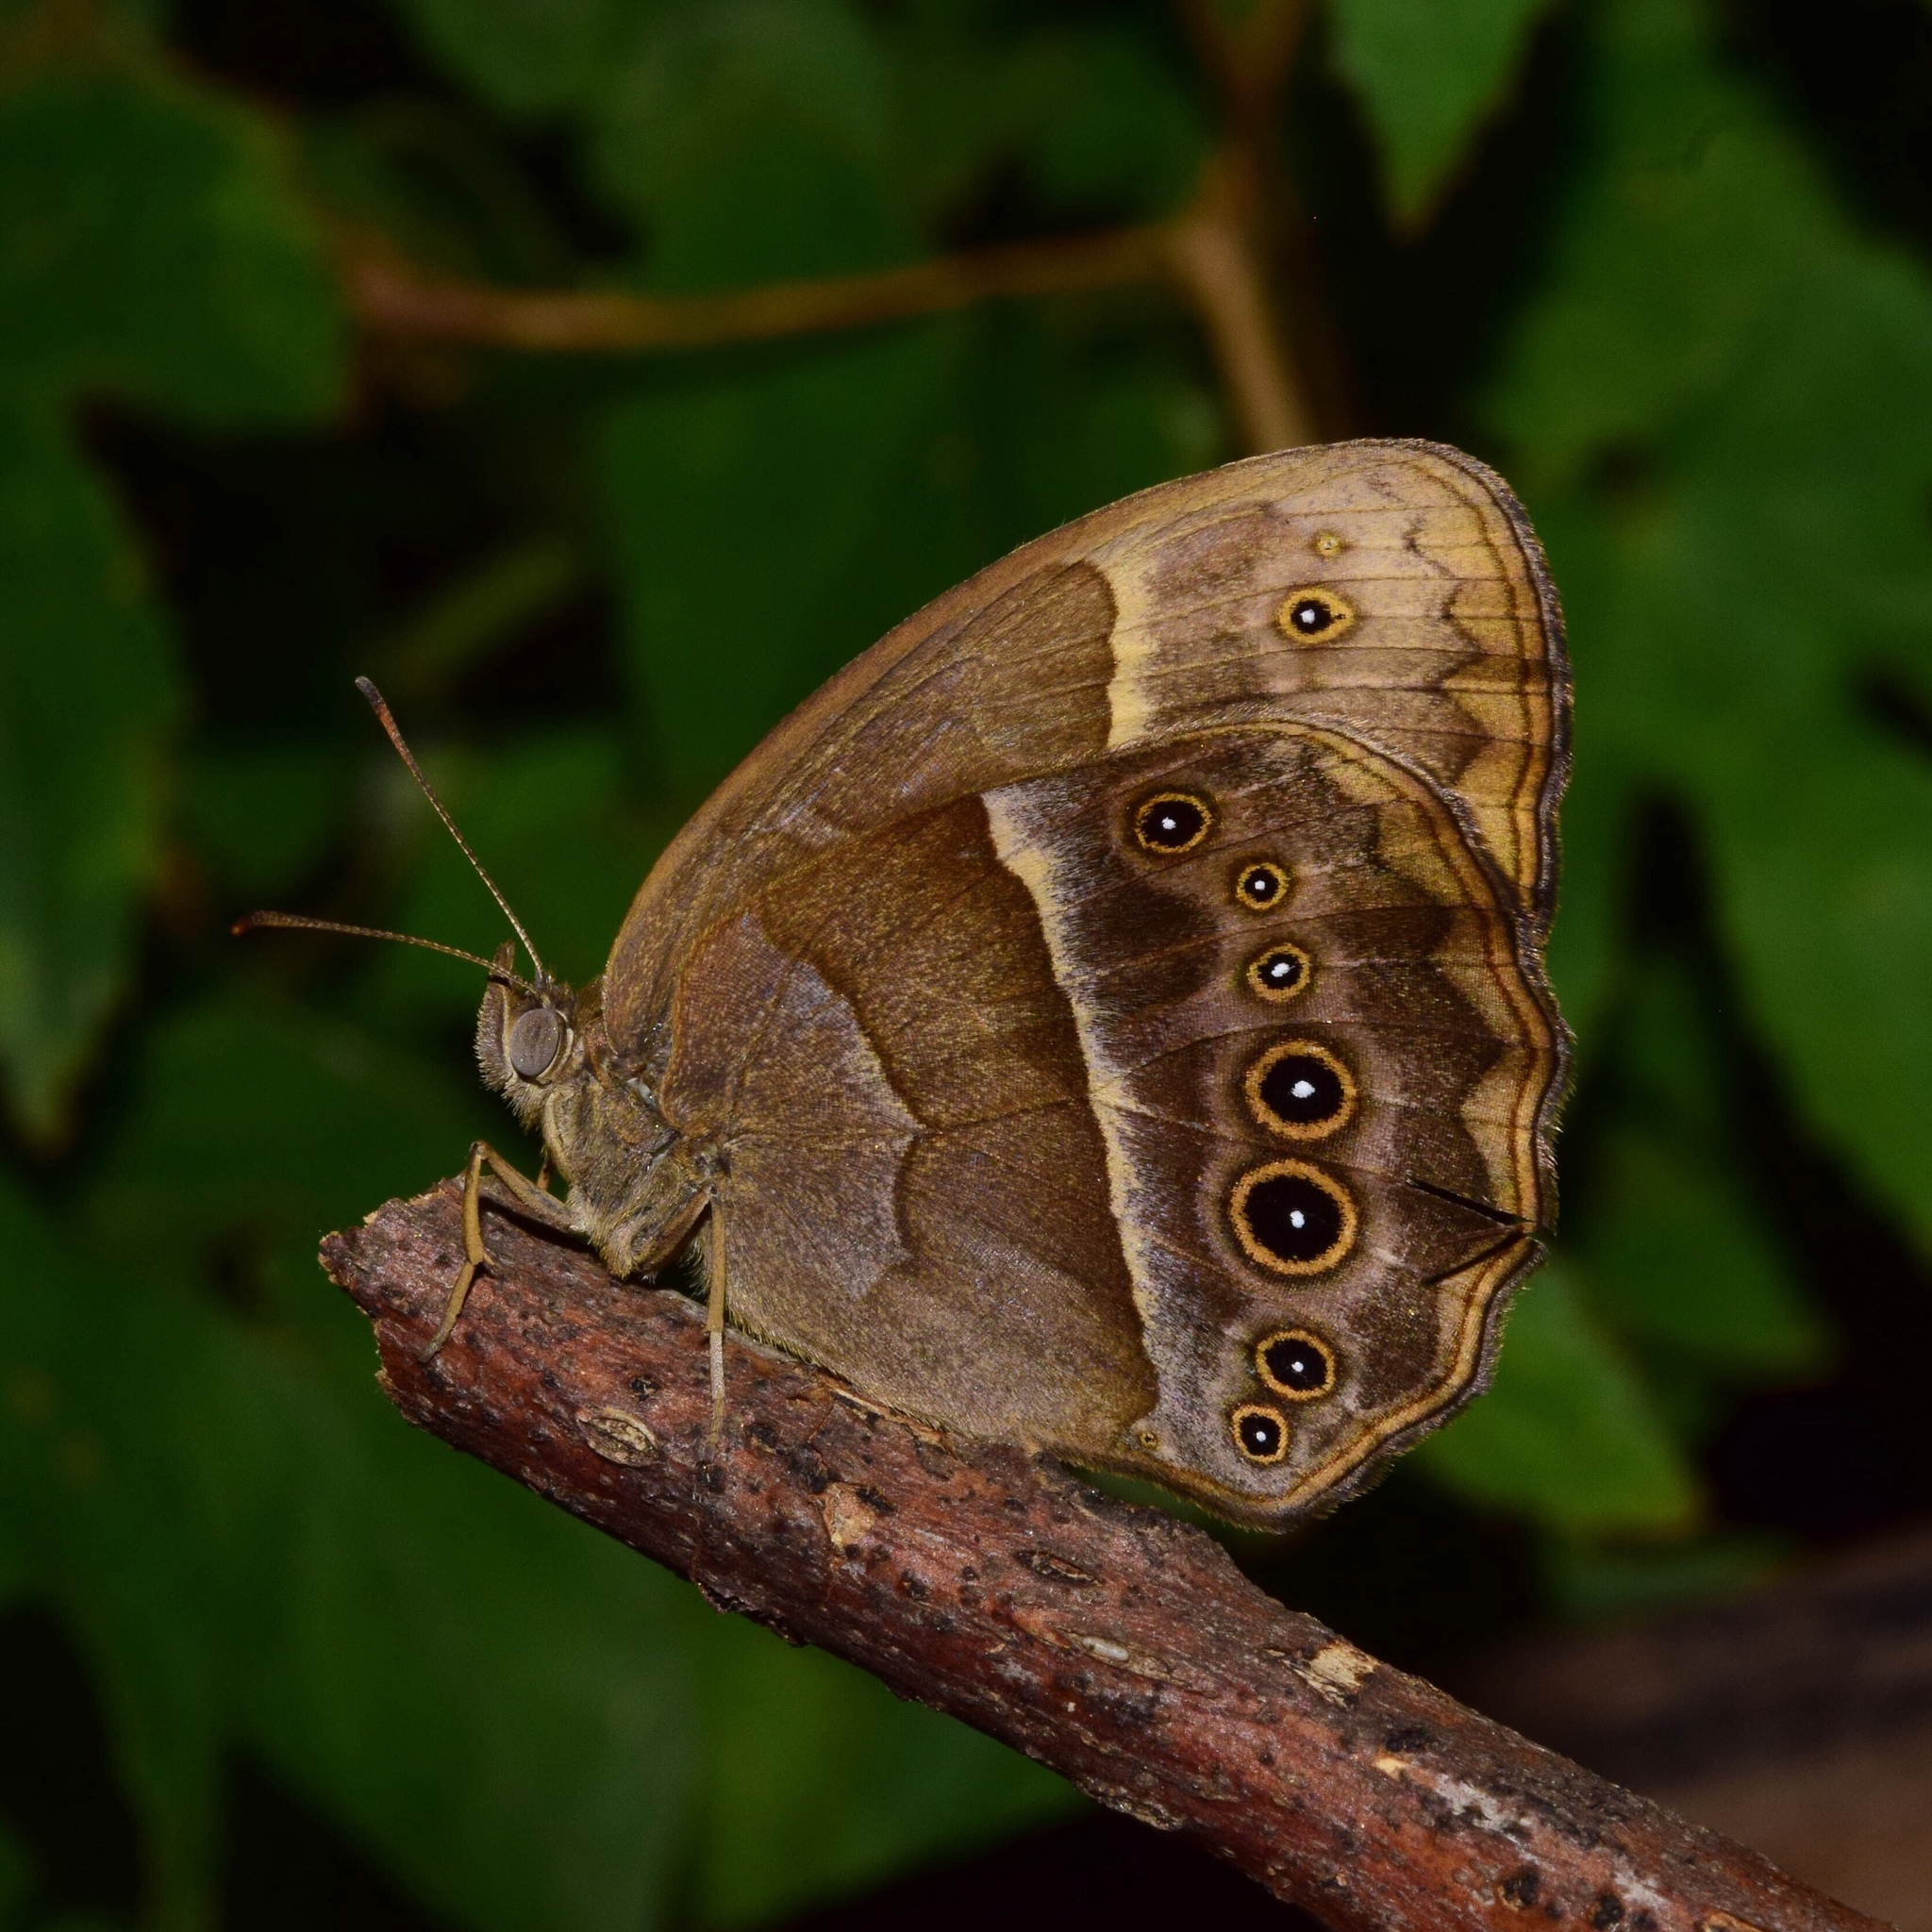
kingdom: Animalia
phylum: Arthropoda
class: Insecta
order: Lepidoptera
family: Nymphalidae
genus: Mycalesis
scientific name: Mycalesis rhacotis
